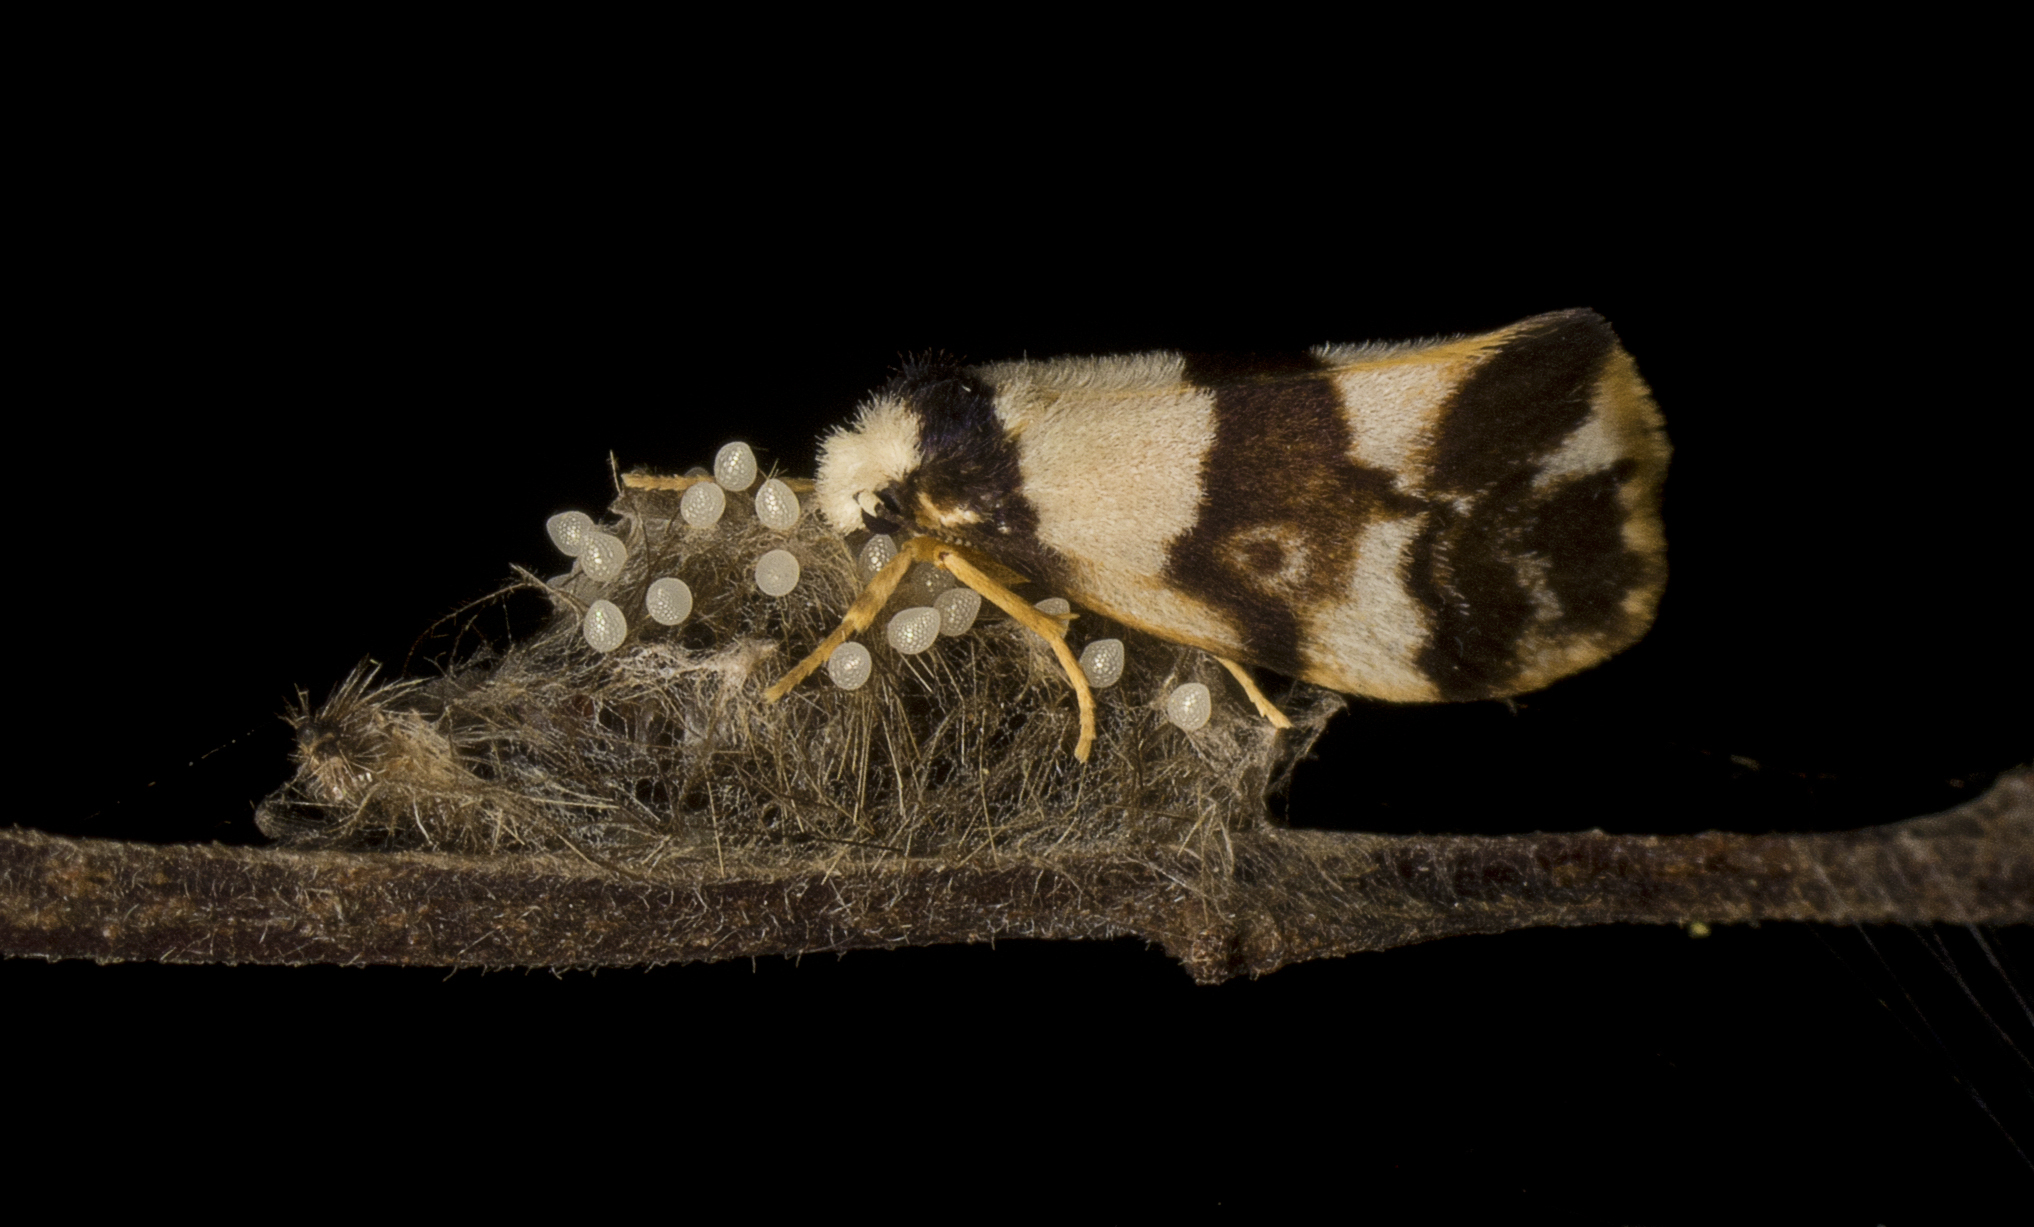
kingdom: Animalia
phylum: Arthropoda
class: Insecta
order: Lepidoptera
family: Erebidae
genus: Philenora
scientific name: Philenora aspectalella
